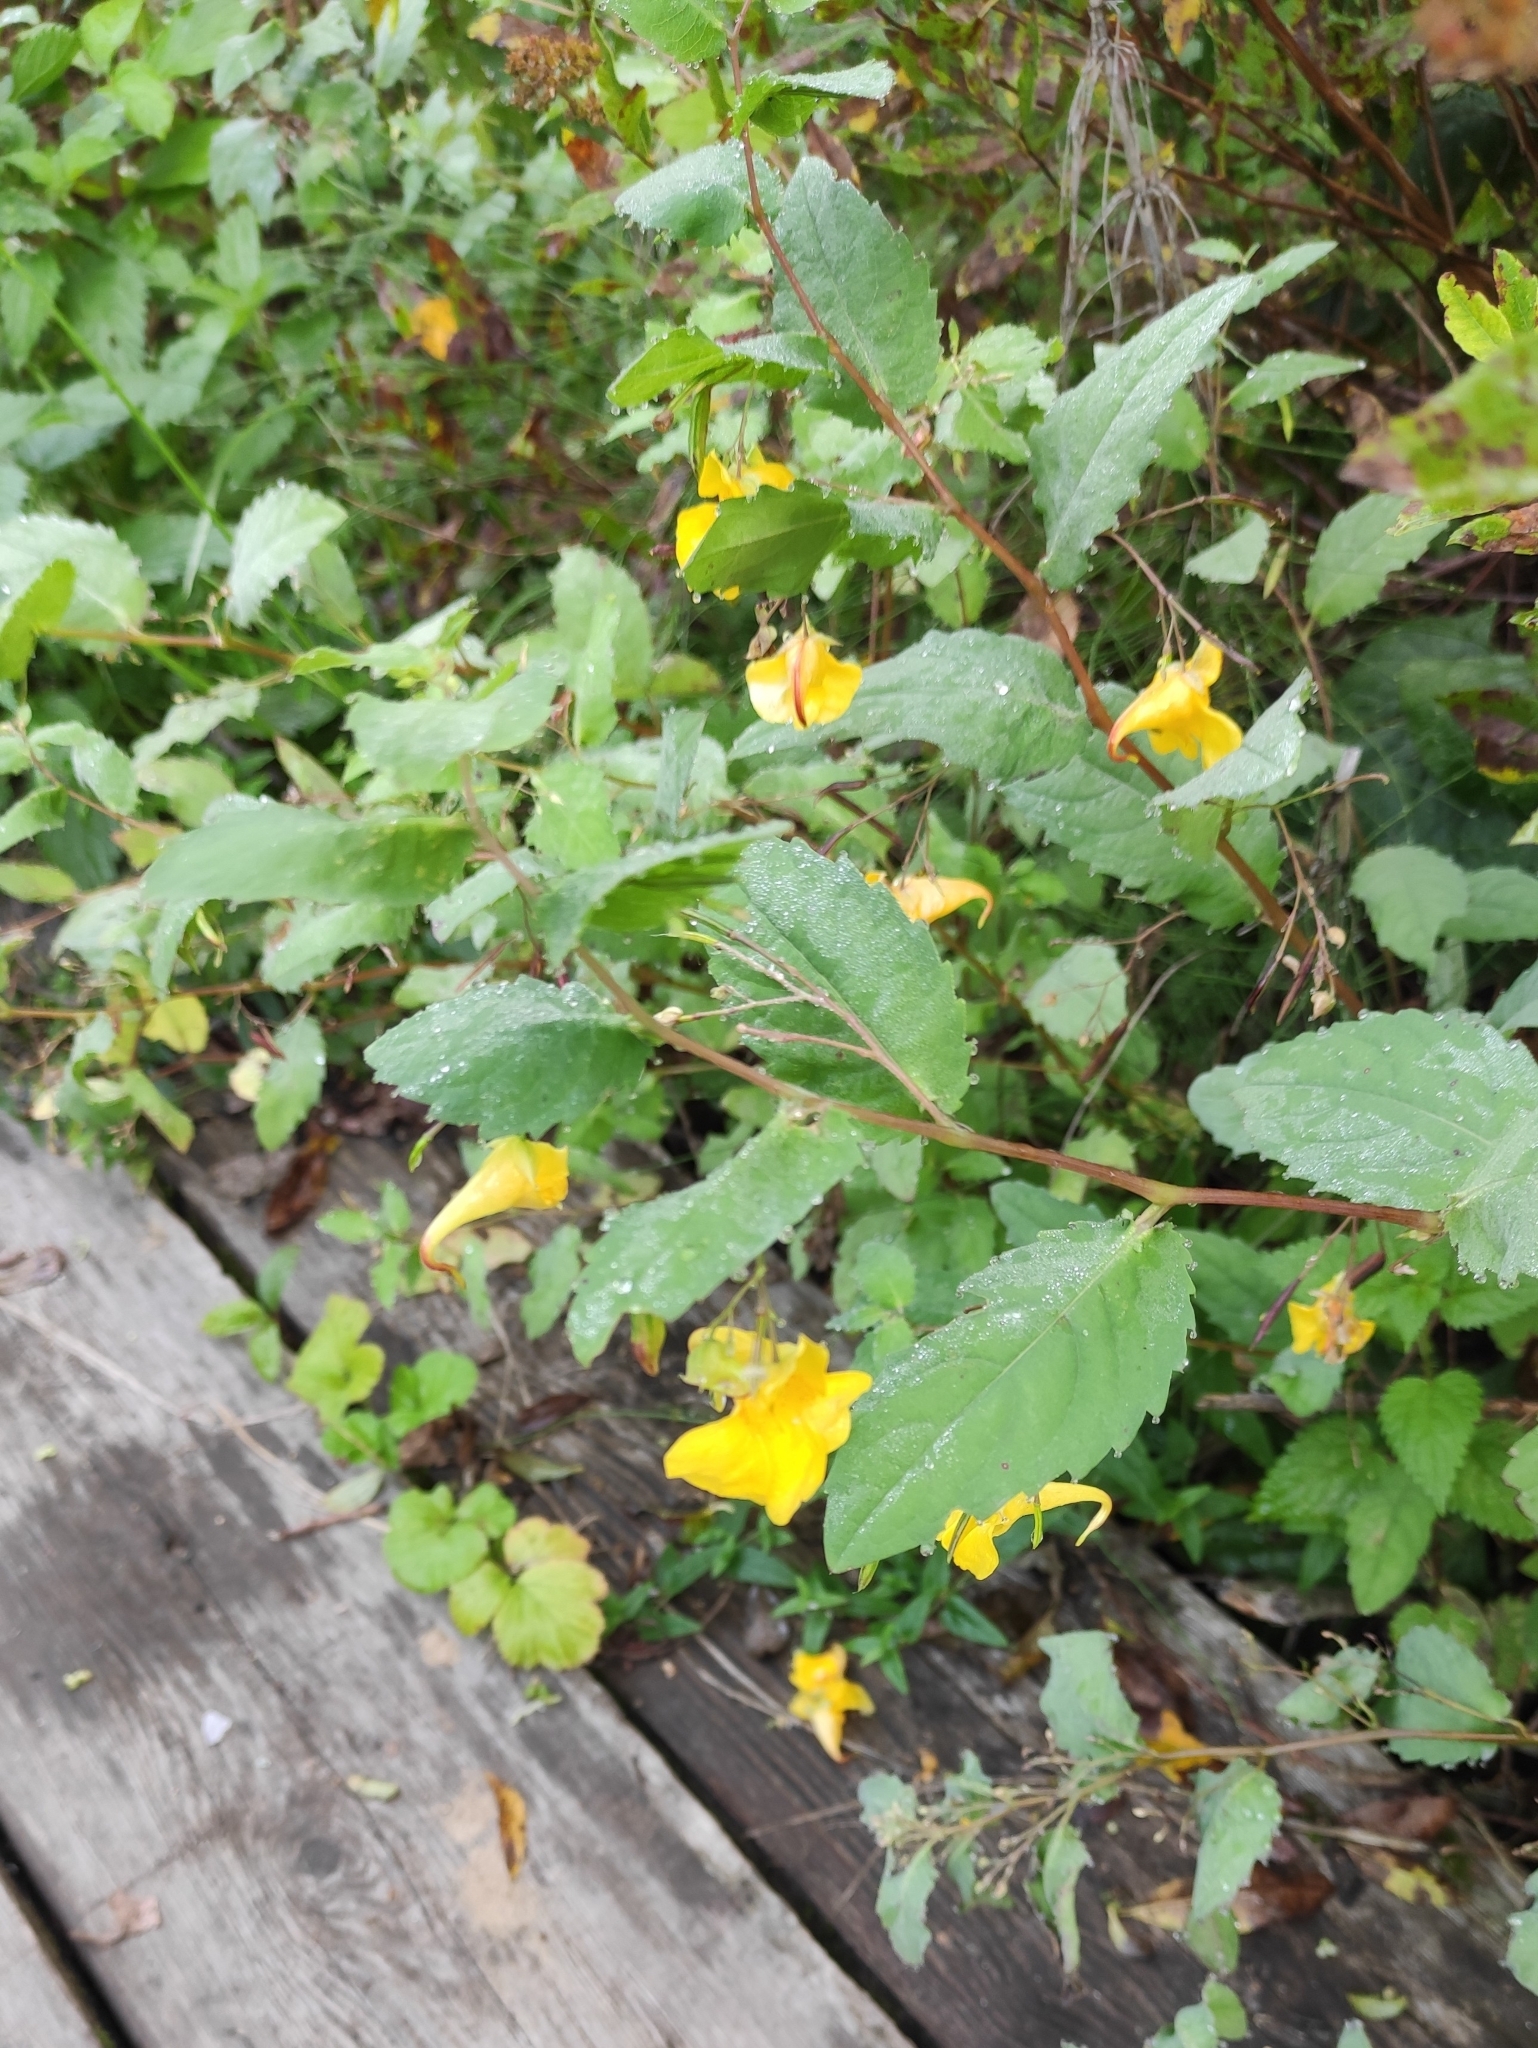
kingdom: Plantae
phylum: Tracheophyta
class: Magnoliopsida
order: Ericales
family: Balsaminaceae
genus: Impatiens
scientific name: Impatiens noli-tangere
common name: Touch-me-not balsam
